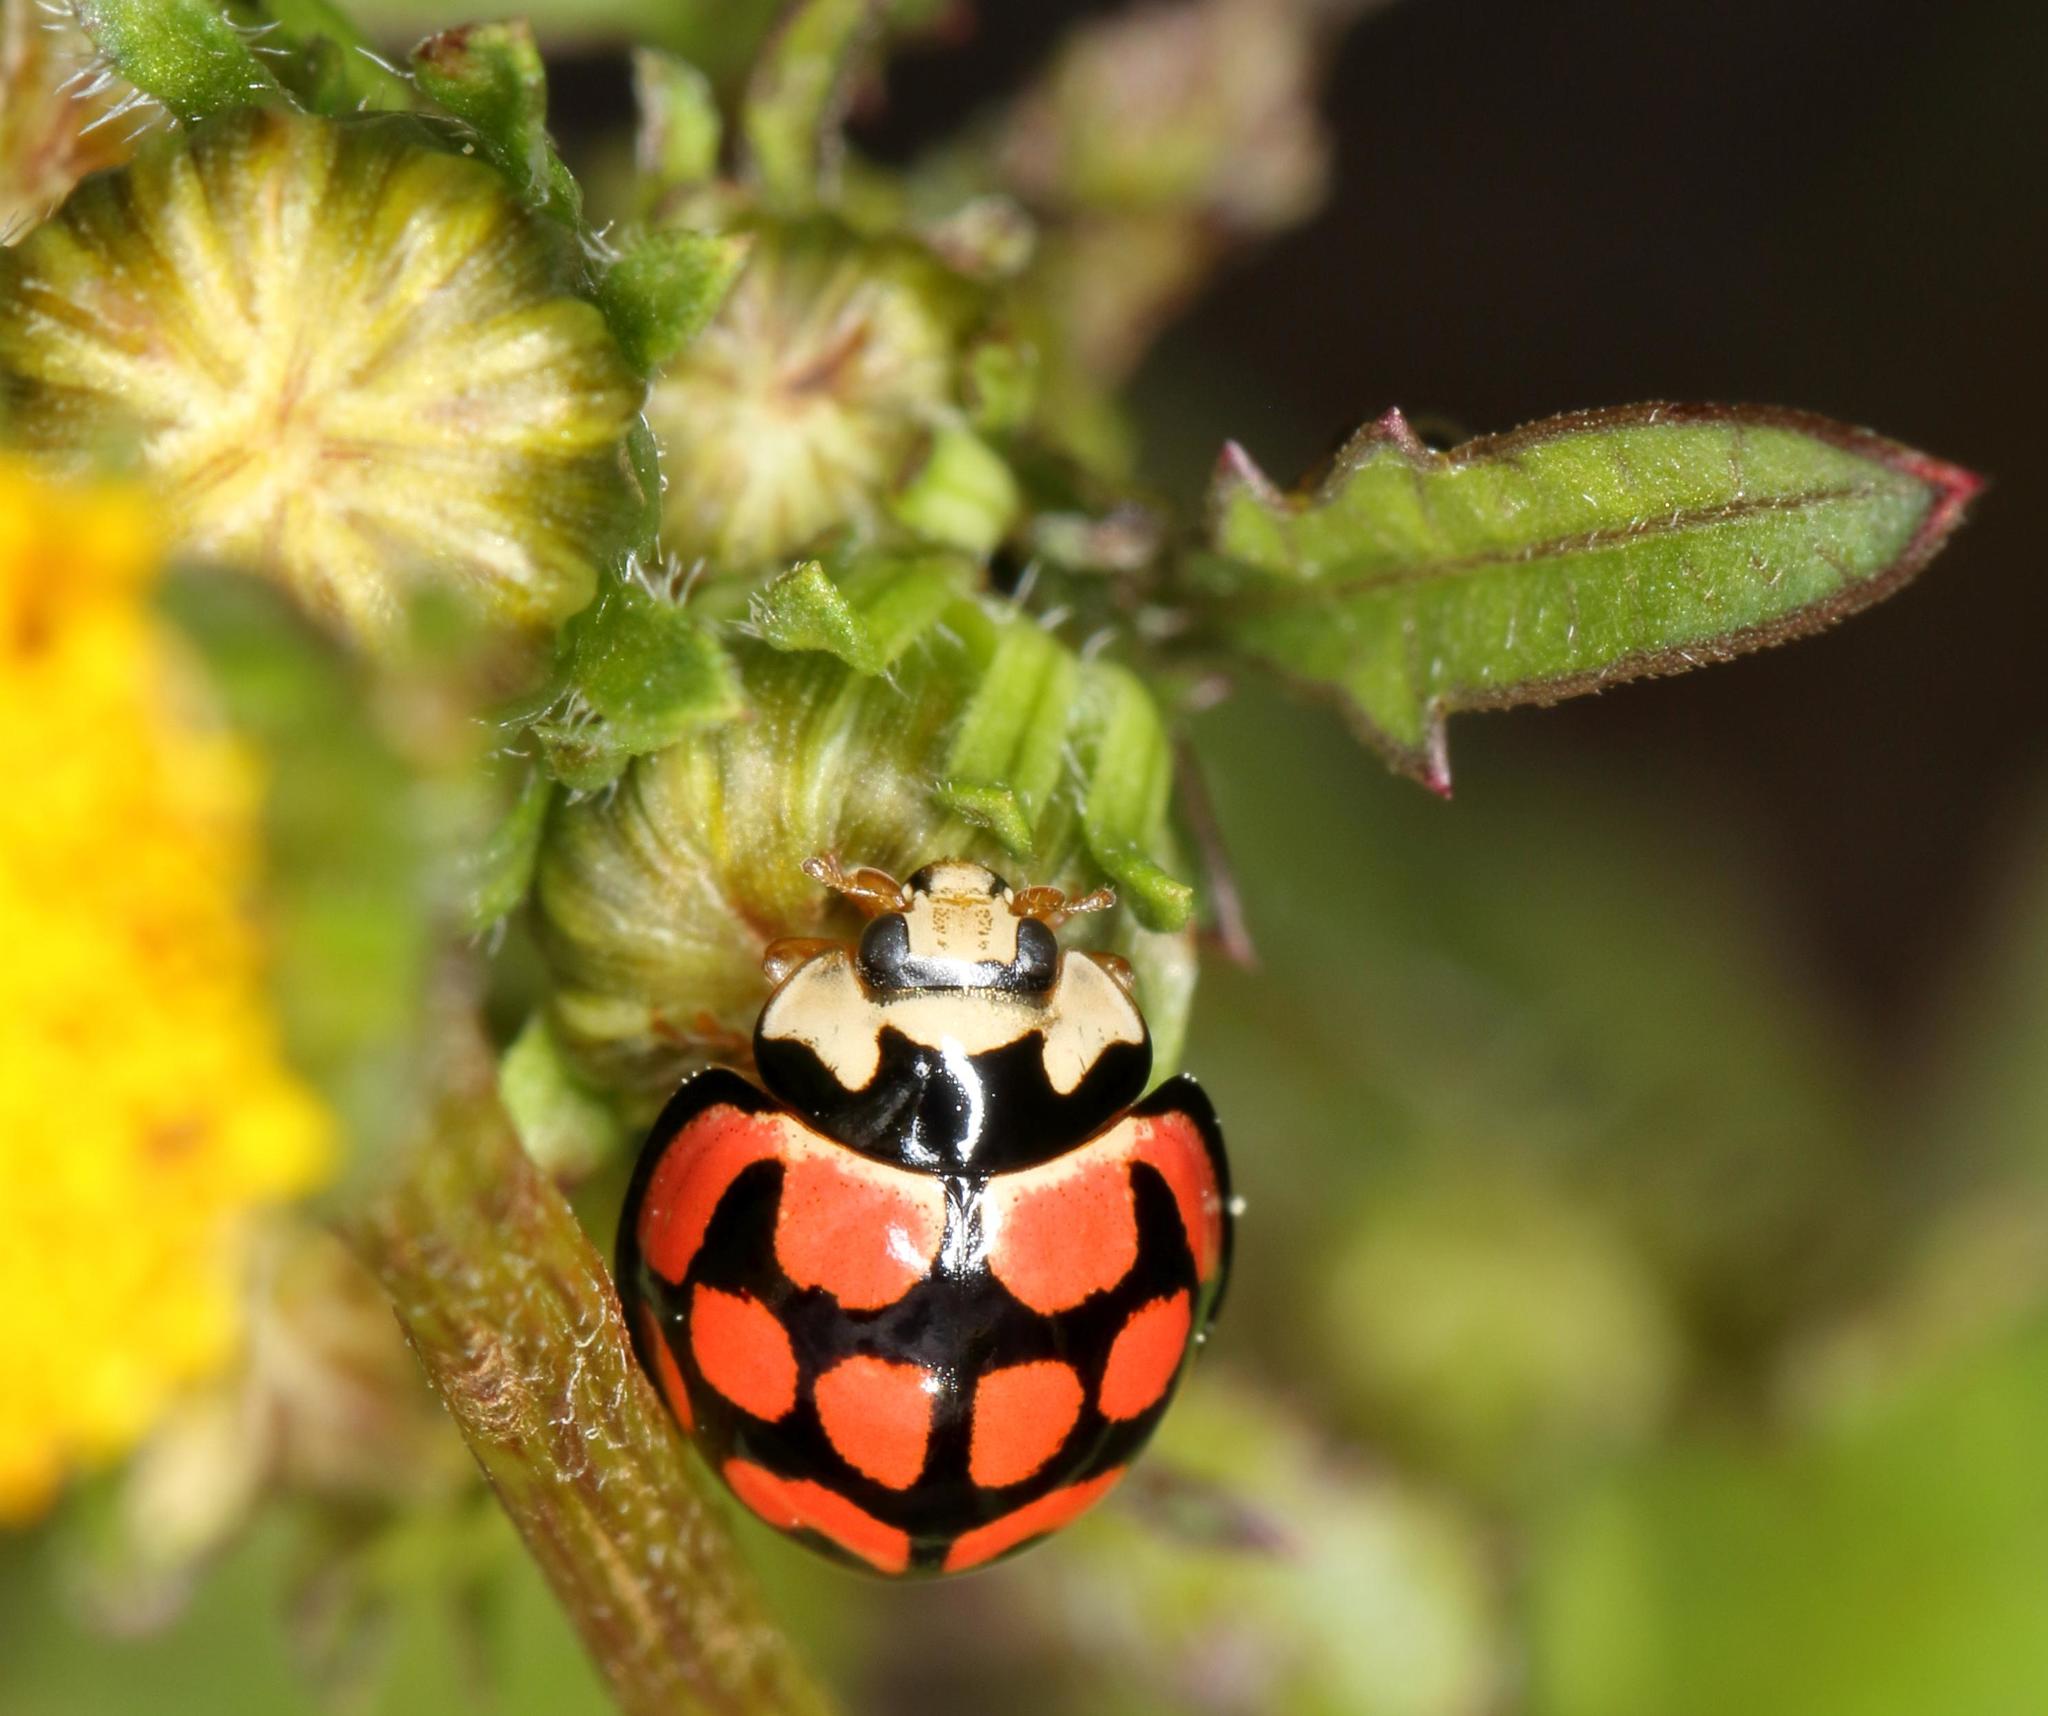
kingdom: Animalia
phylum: Arthropoda
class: Insecta
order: Coleoptera
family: Coccinellidae
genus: Cheilomenes
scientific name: Cheilomenes lunata
